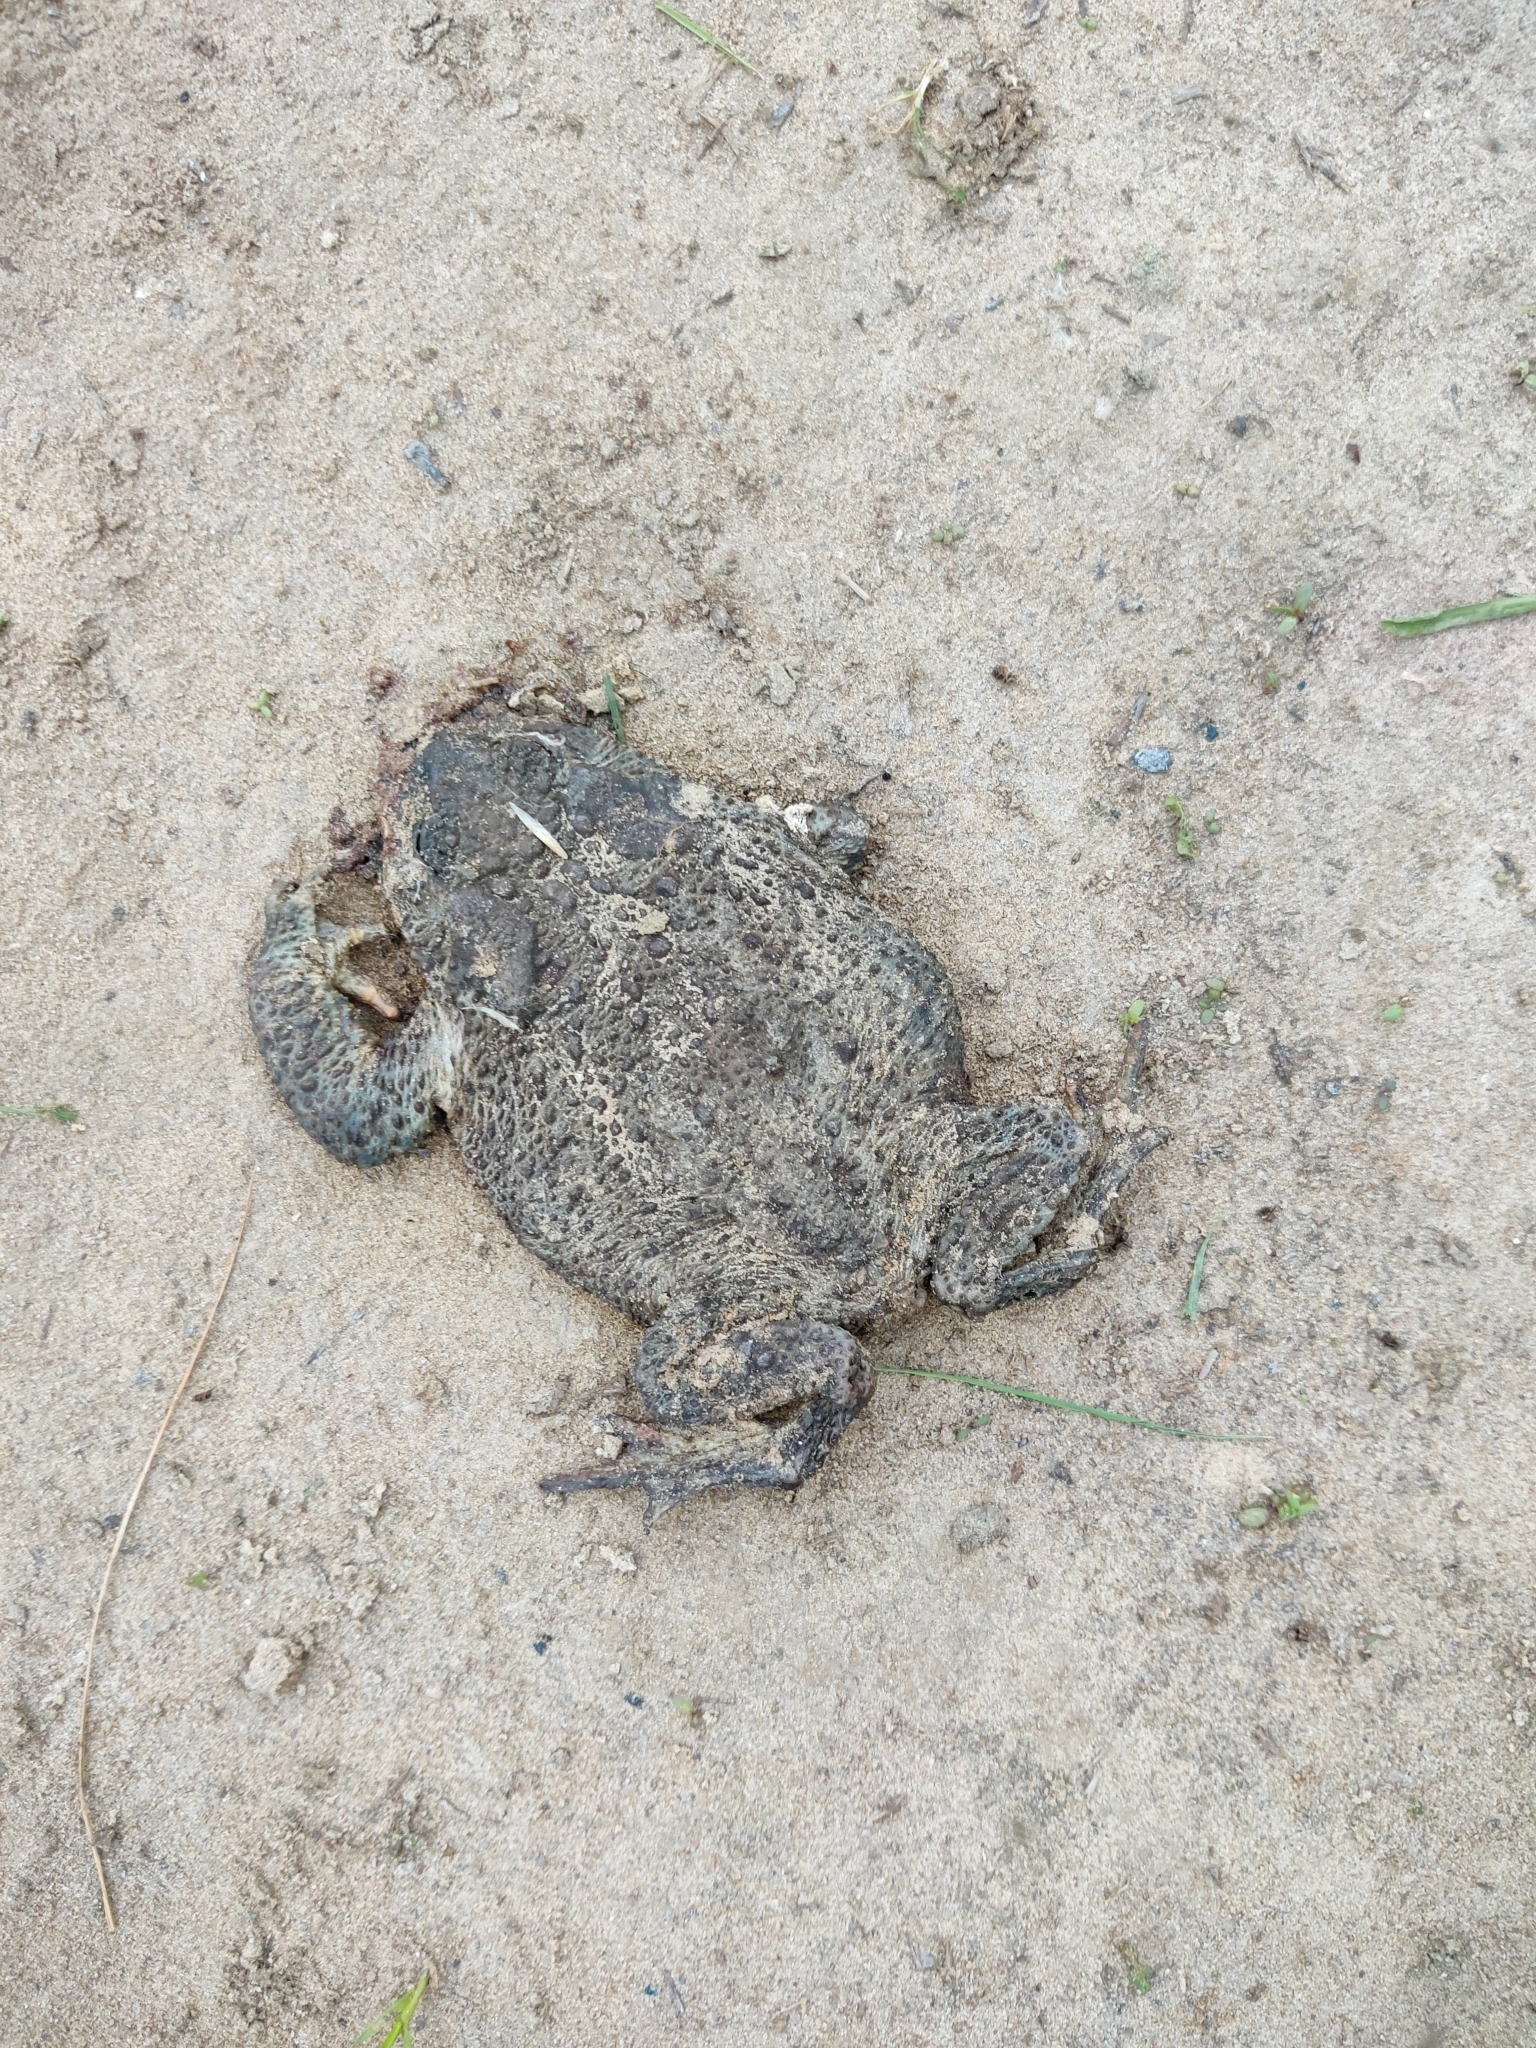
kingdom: Animalia
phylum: Chordata
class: Amphibia
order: Anura
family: Bufonidae
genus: Bufo
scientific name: Bufo bufo
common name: Common toad
